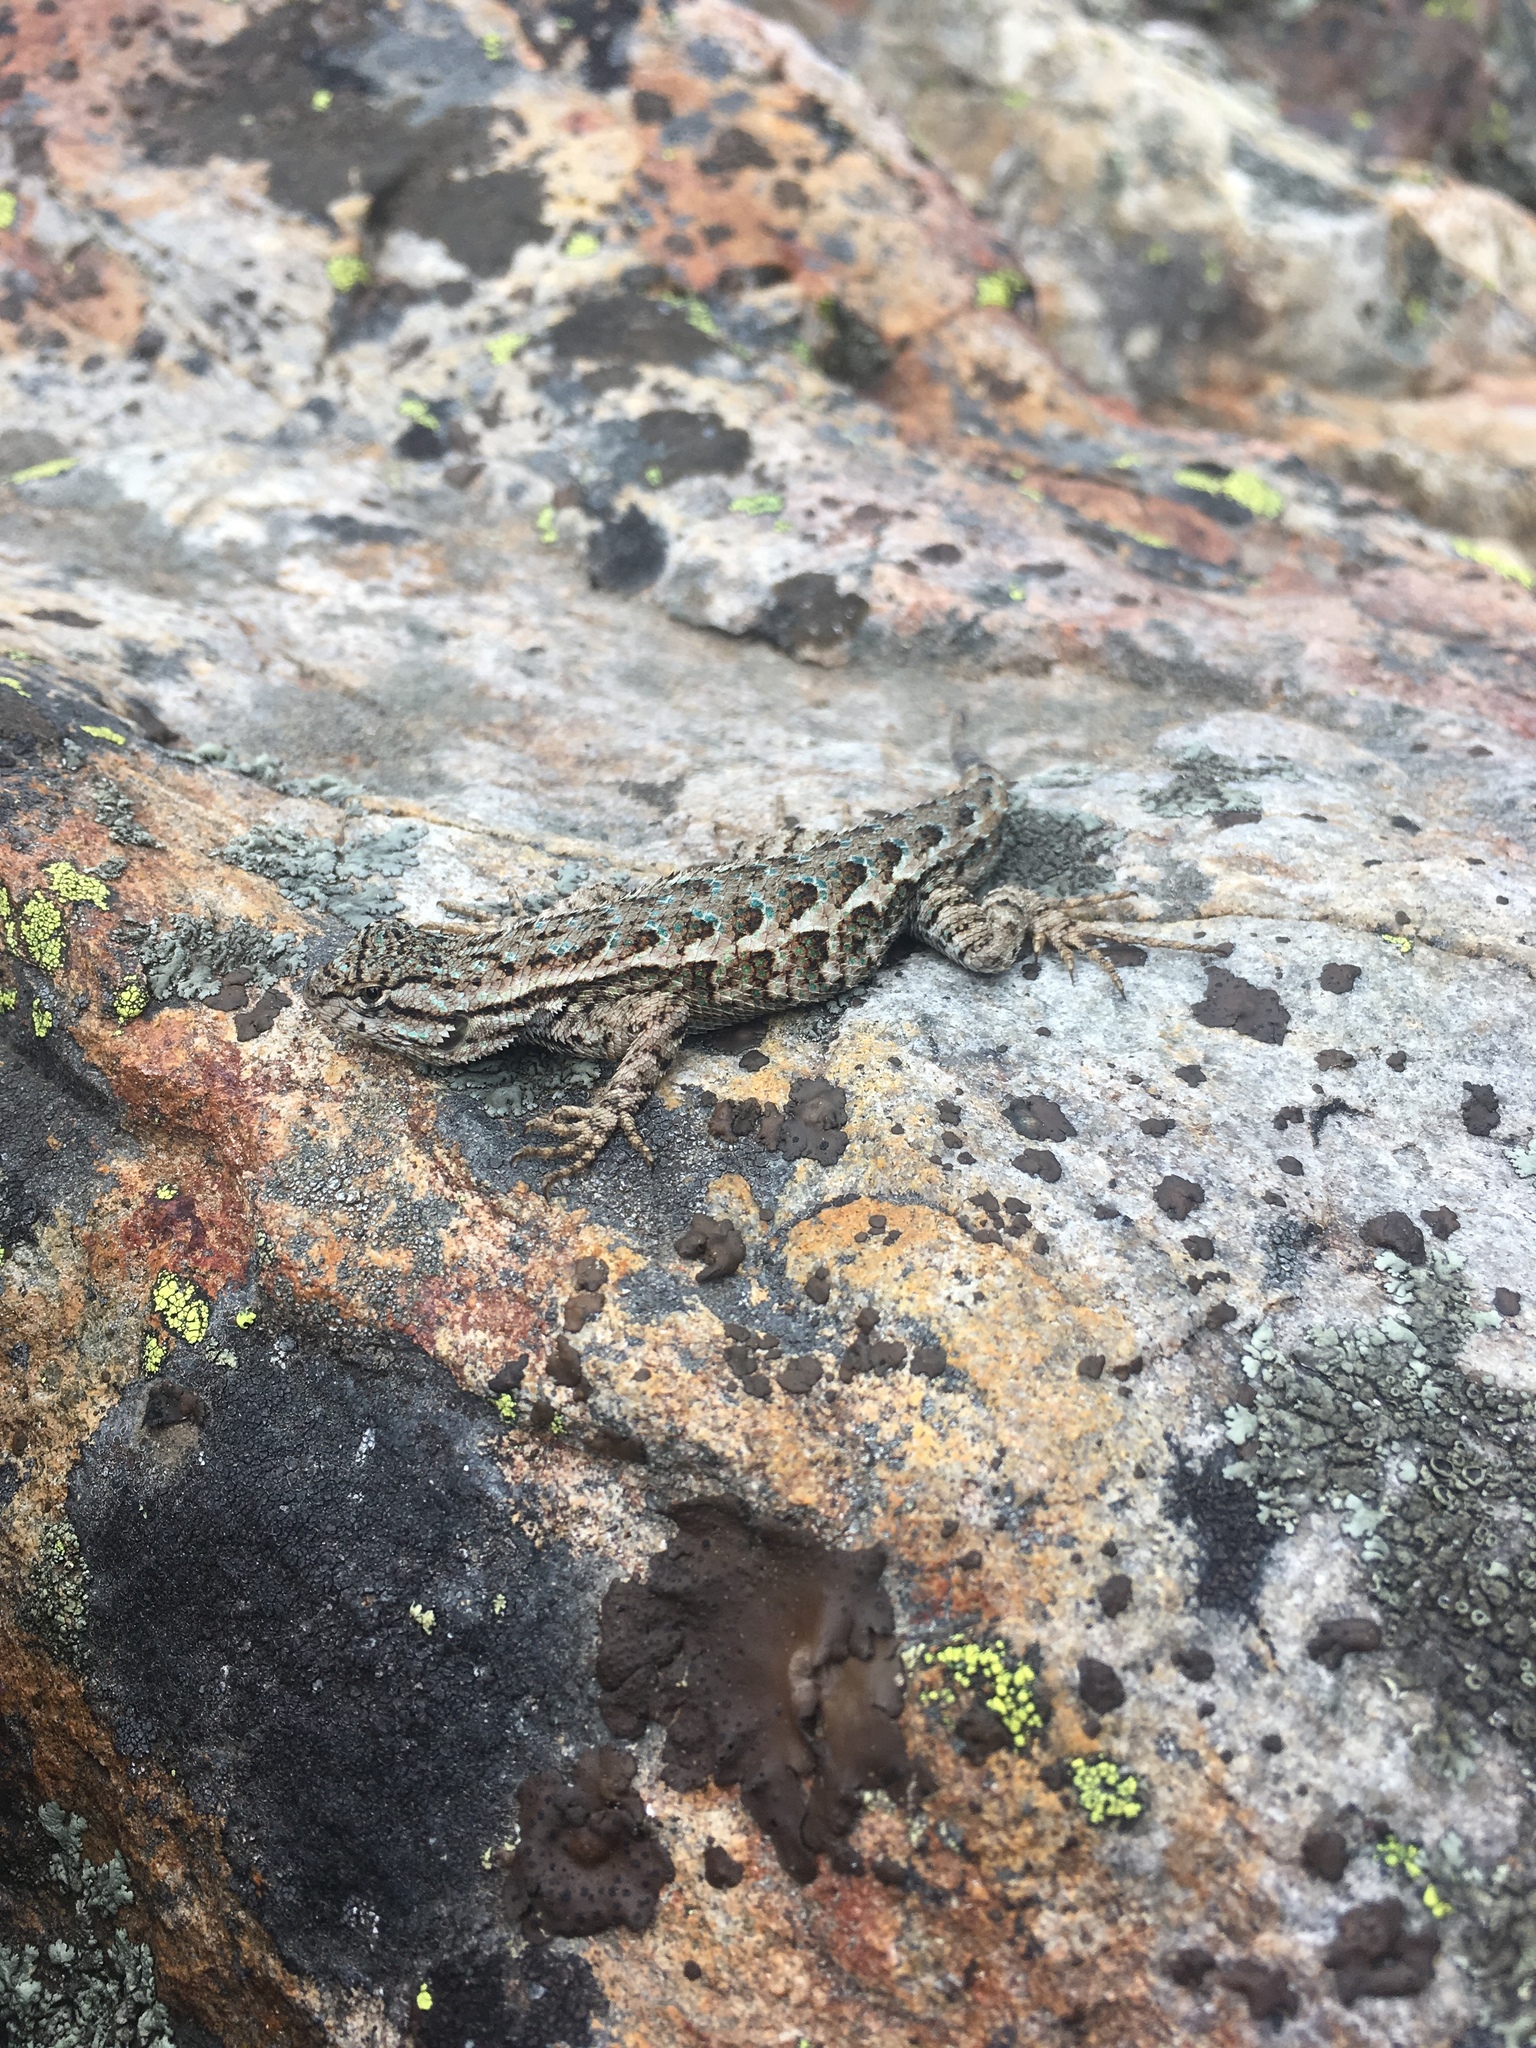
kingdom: Animalia
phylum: Chordata
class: Squamata
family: Phrynosomatidae
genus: Sceloporus
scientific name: Sceloporus occidentalis
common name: Western fence lizard
